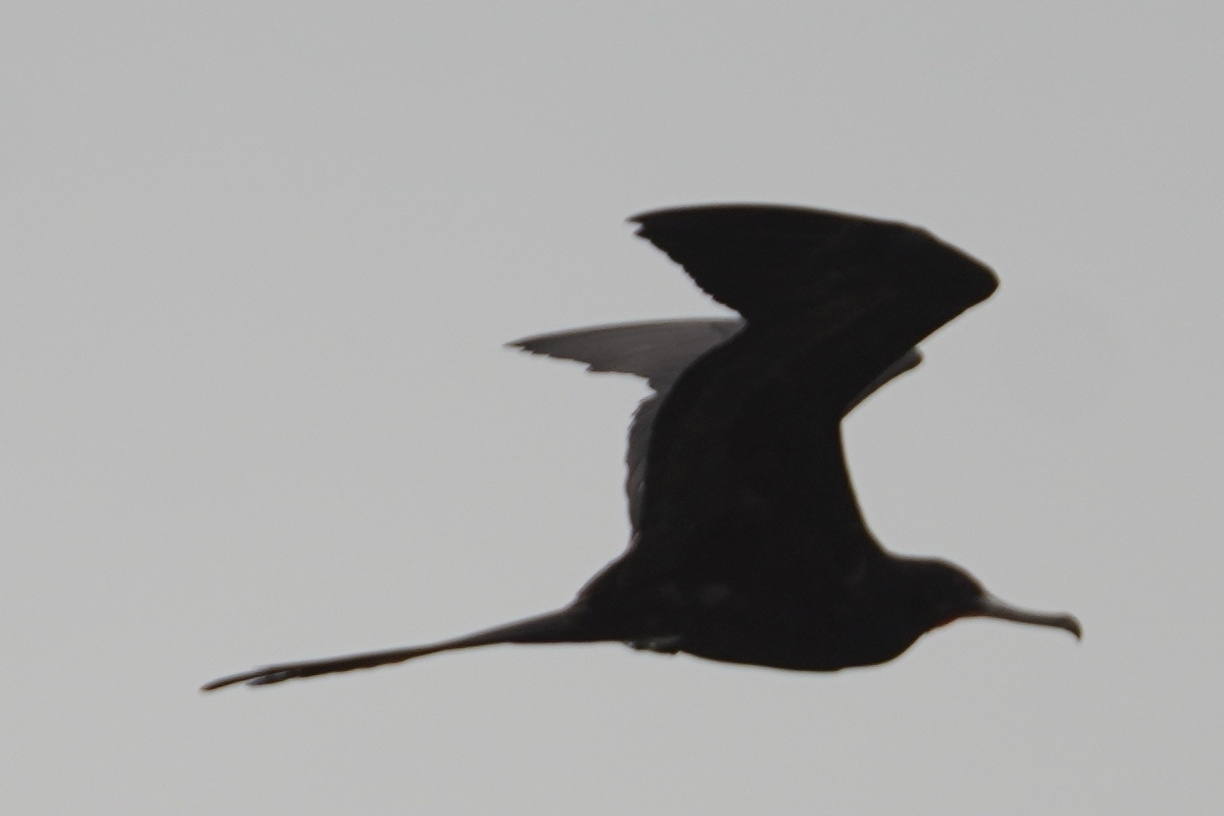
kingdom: Animalia
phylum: Chordata
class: Aves
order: Suliformes
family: Fregatidae
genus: Fregata
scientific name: Fregata magnificens
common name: Magnificent frigatebird
